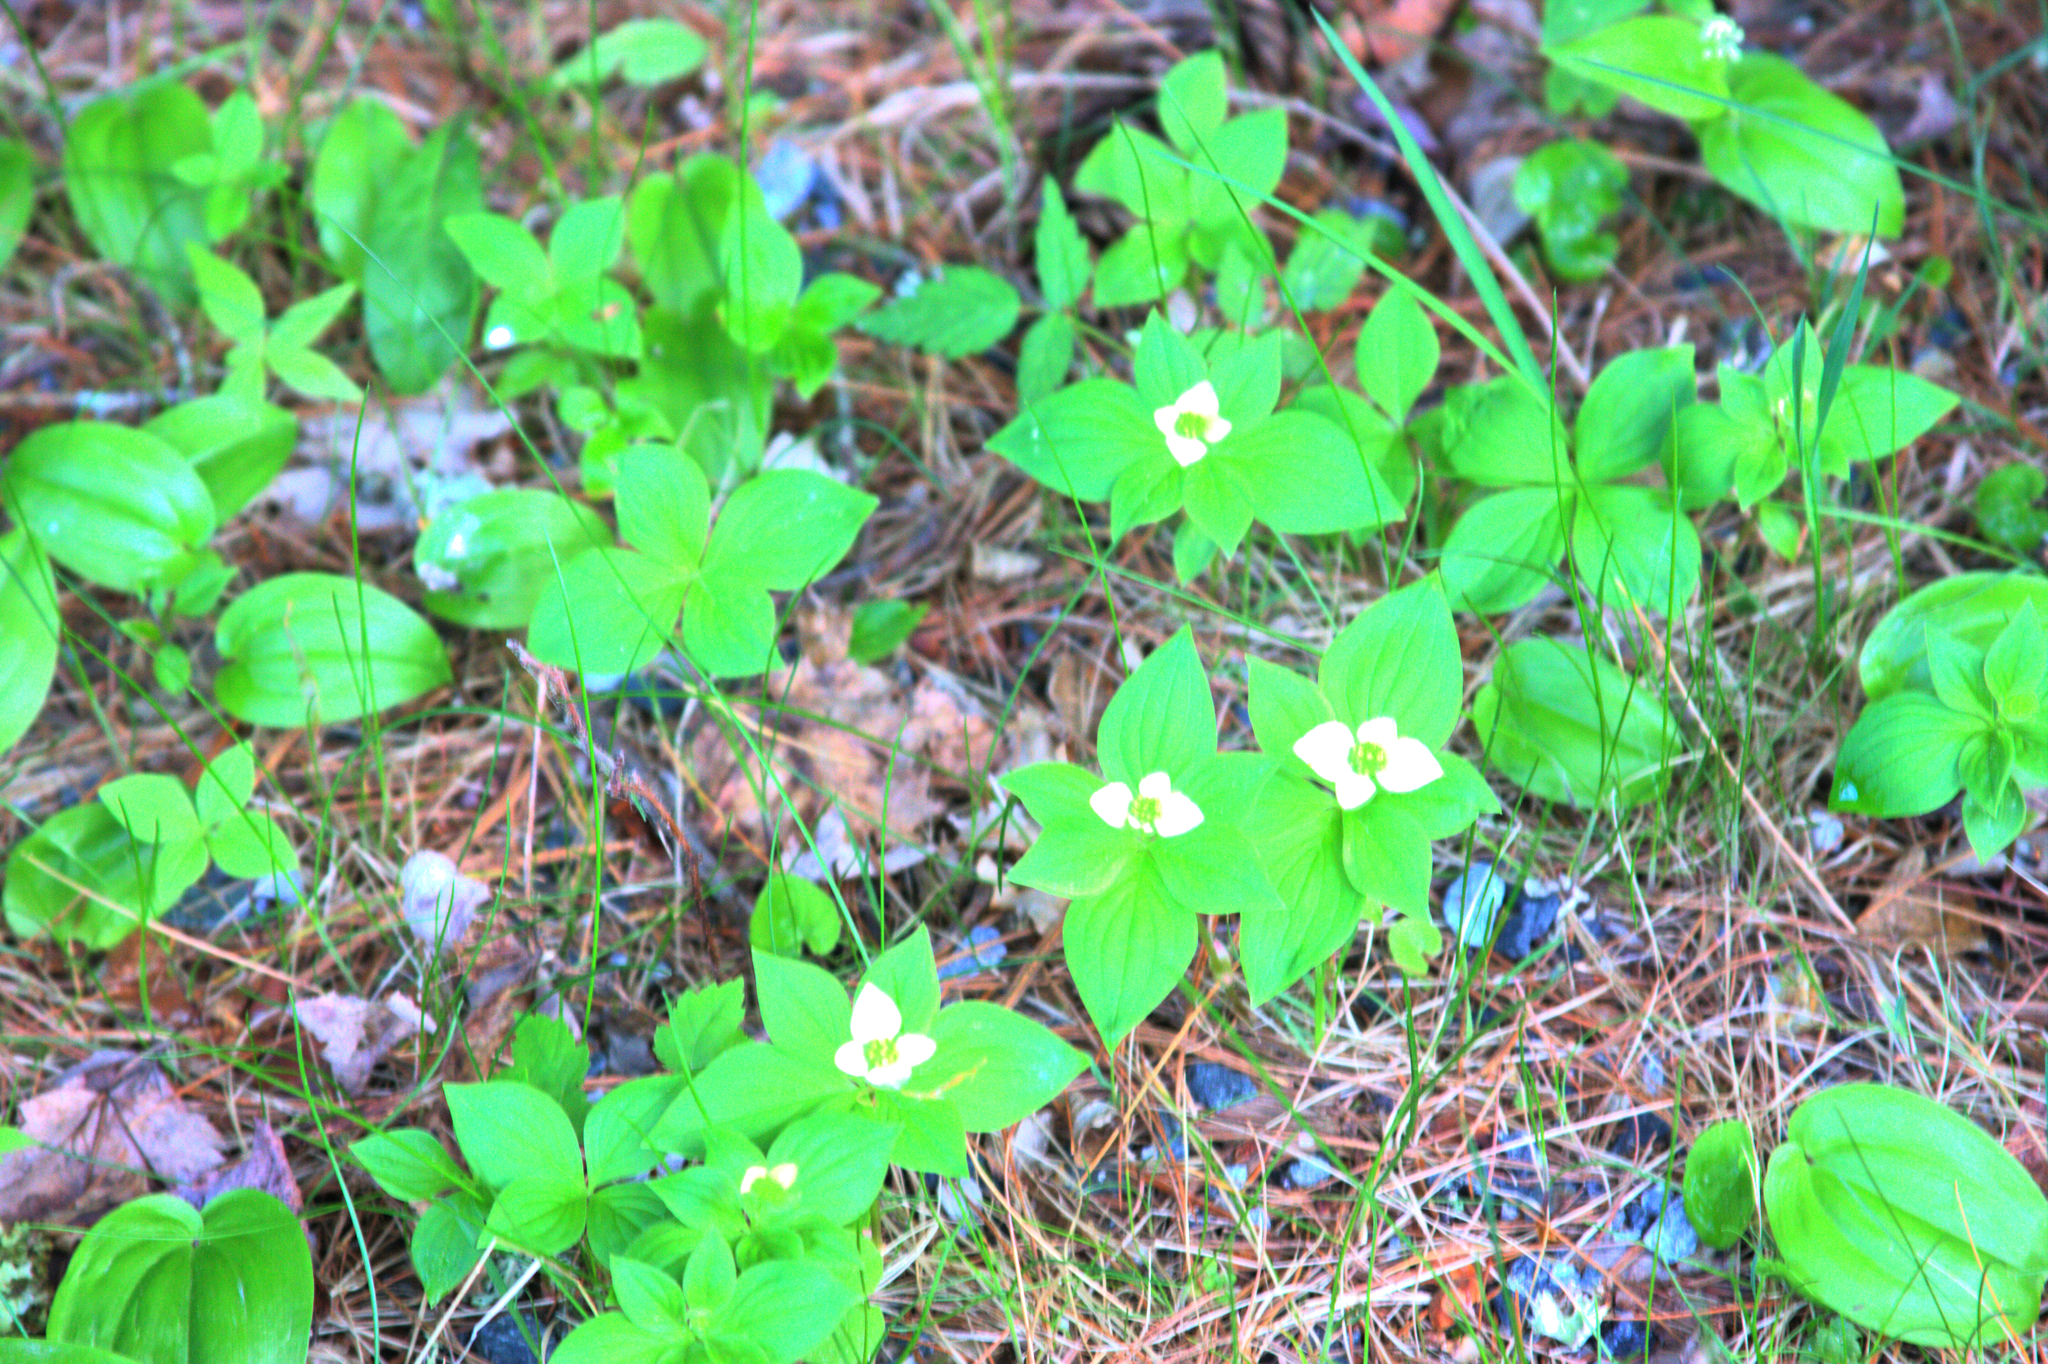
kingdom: Plantae
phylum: Tracheophyta
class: Magnoliopsida
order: Cornales
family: Cornaceae
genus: Cornus
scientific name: Cornus canadensis
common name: Creeping dogwood
